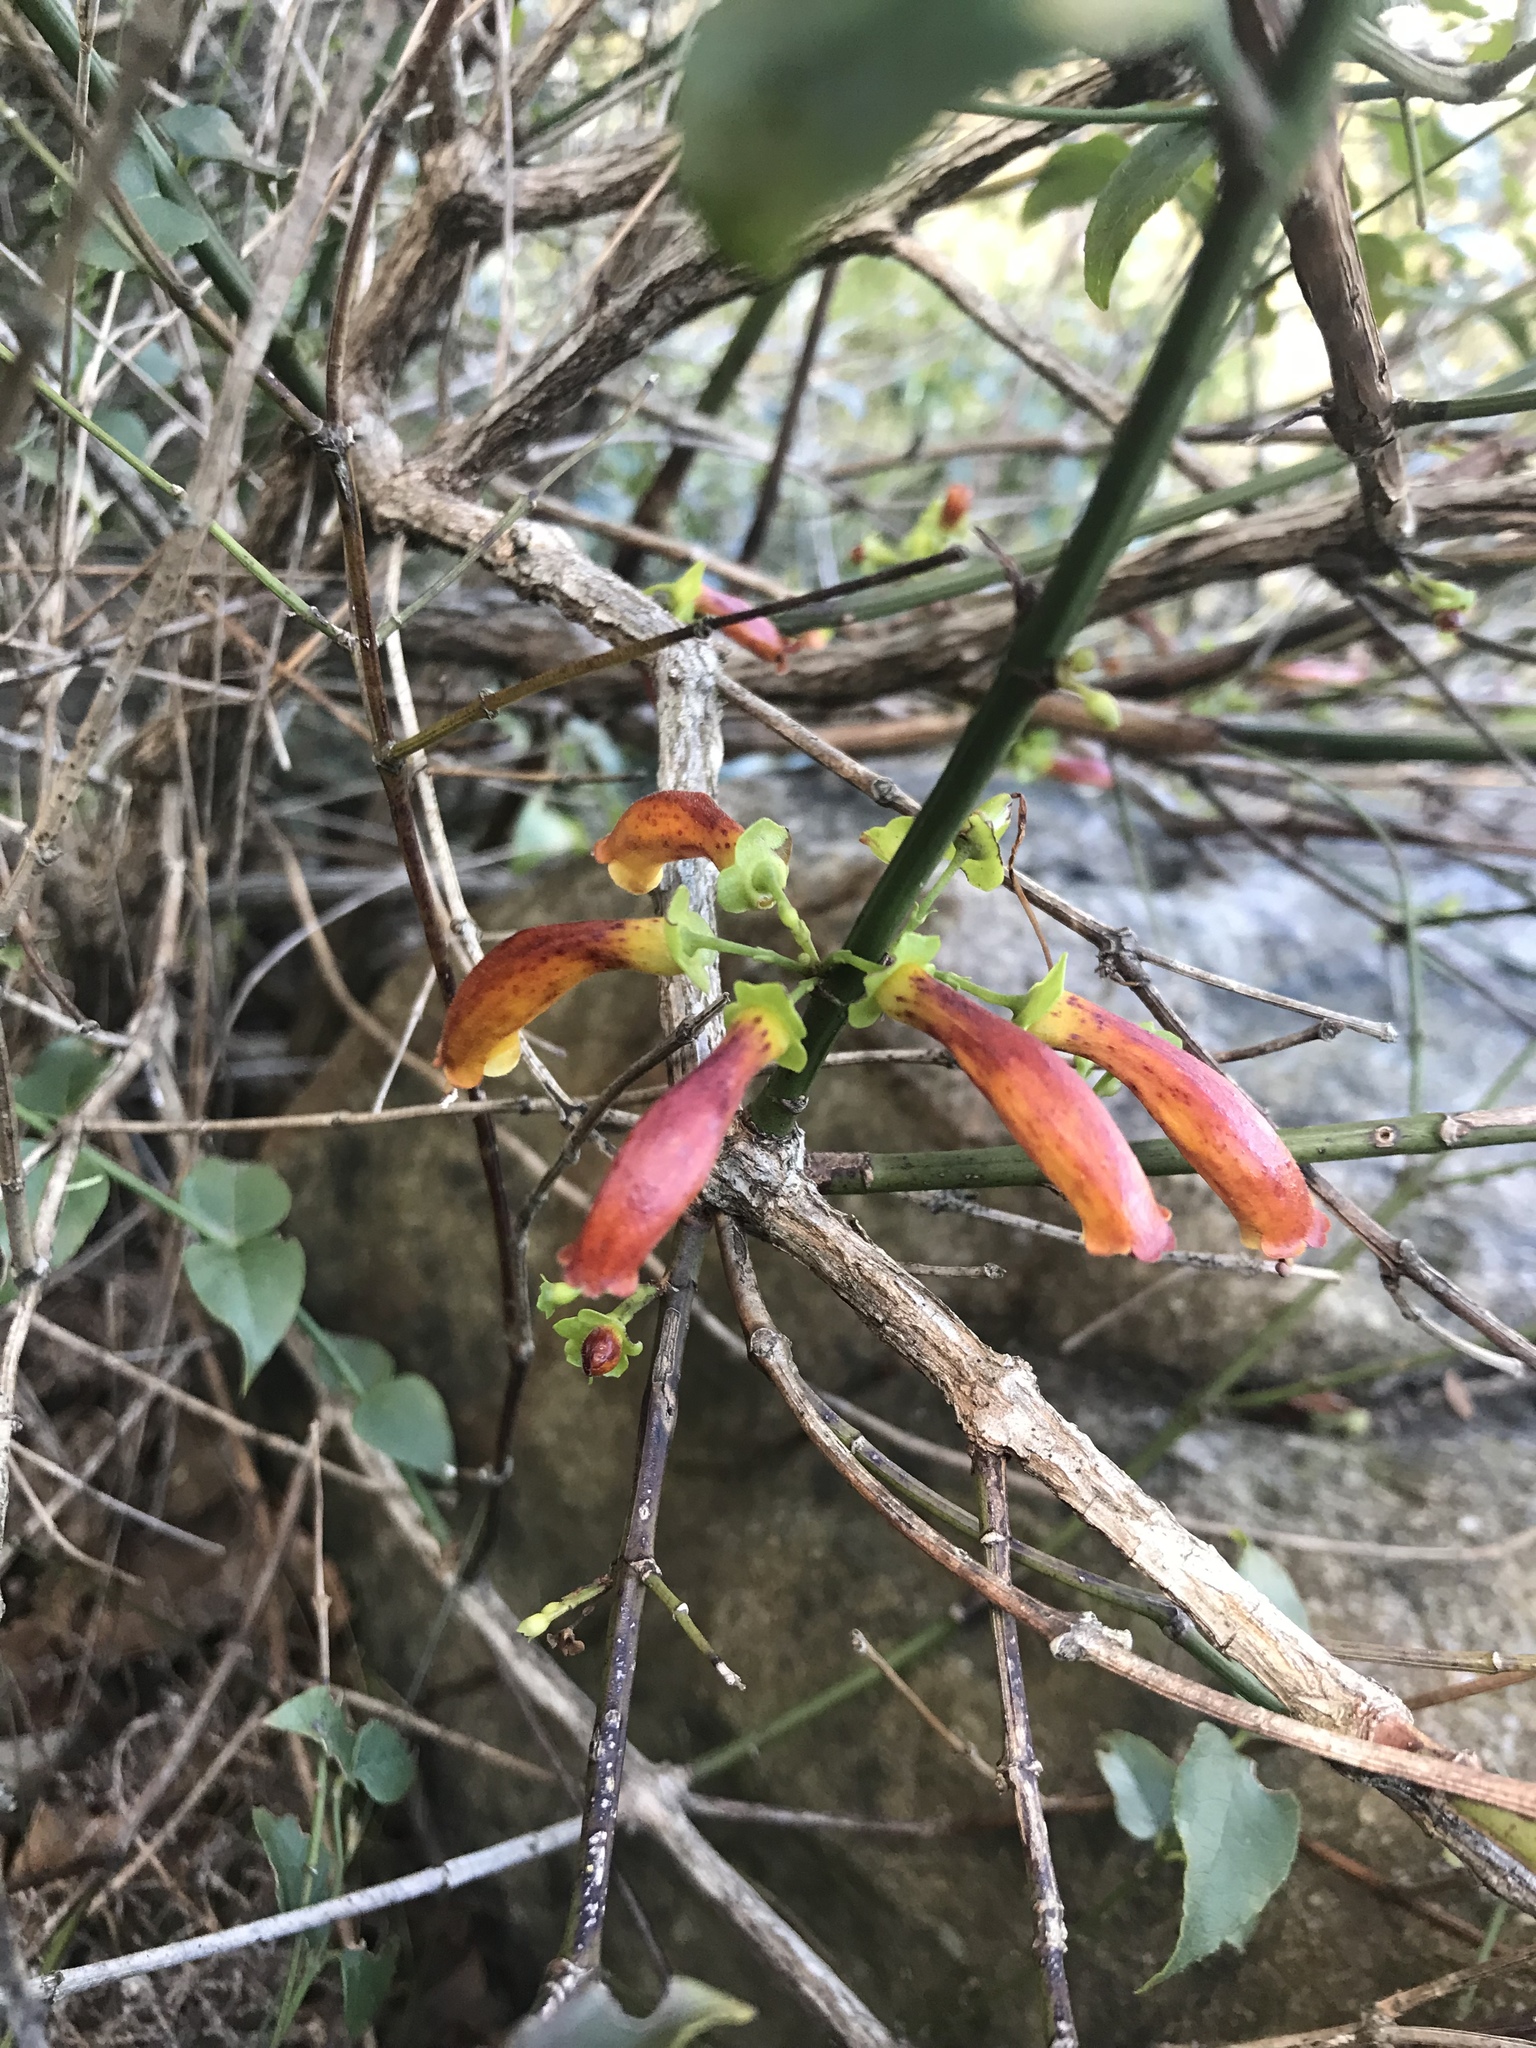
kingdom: Plantae
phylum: Tracheophyta
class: Magnoliopsida
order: Lamiales
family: Stilbaceae
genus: Halleria
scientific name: Halleria lucida
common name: Tree fuschia
